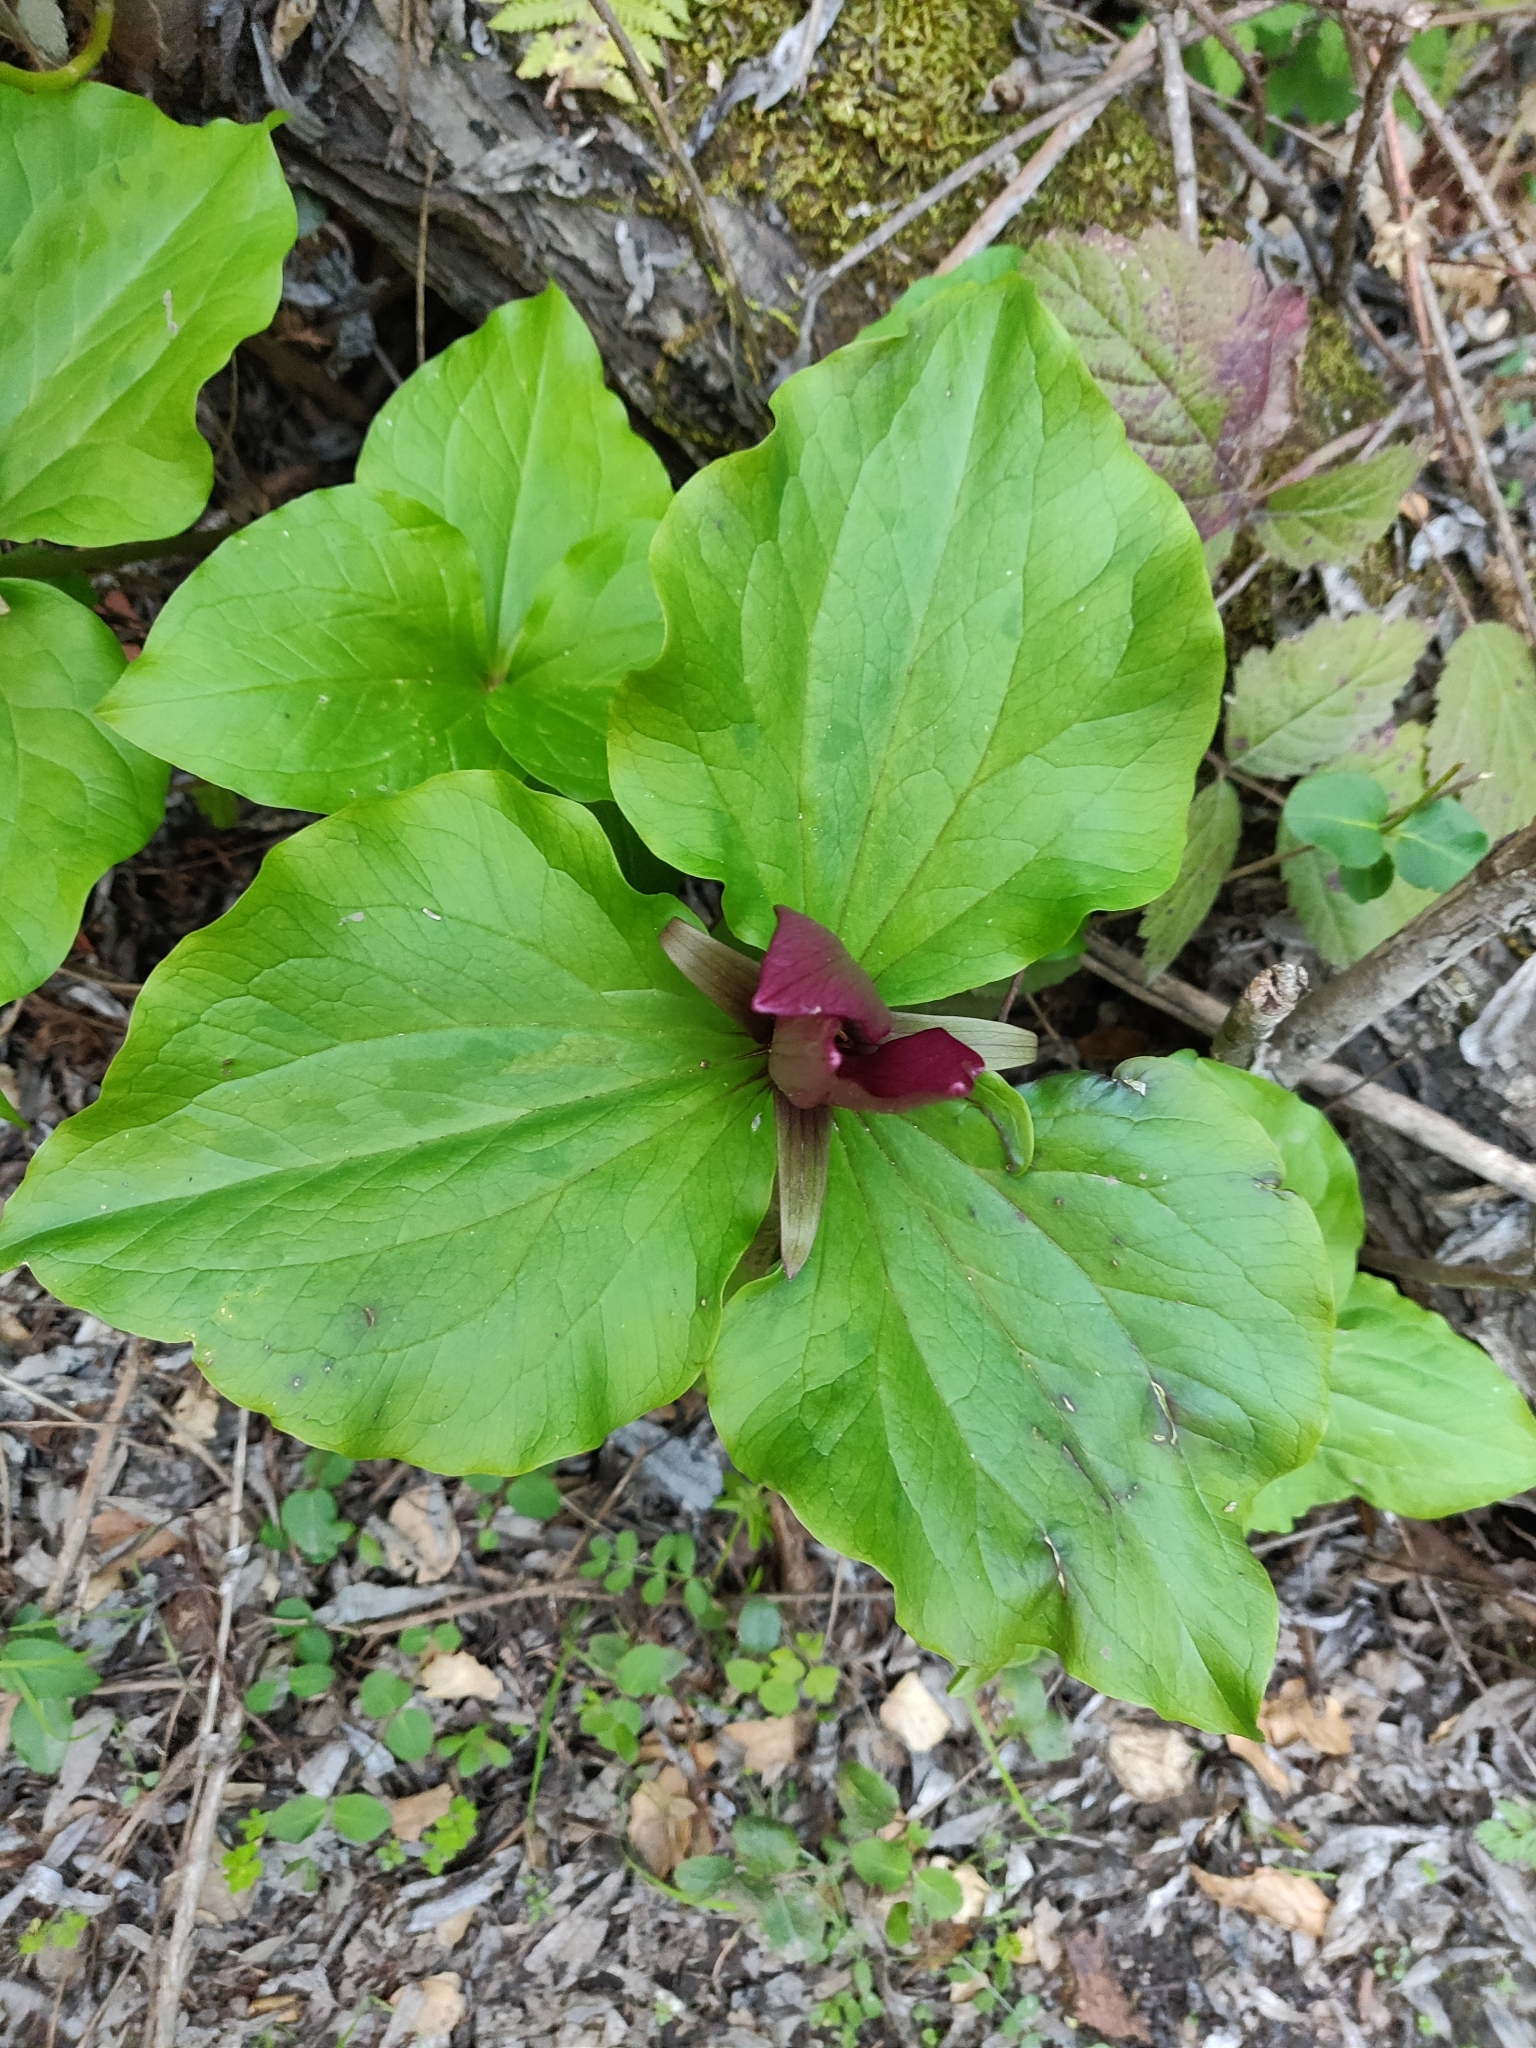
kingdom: Plantae
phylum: Tracheophyta
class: Liliopsida
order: Liliales
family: Melanthiaceae
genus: Trillium
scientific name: Trillium chloropetalum
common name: Giant trillium
